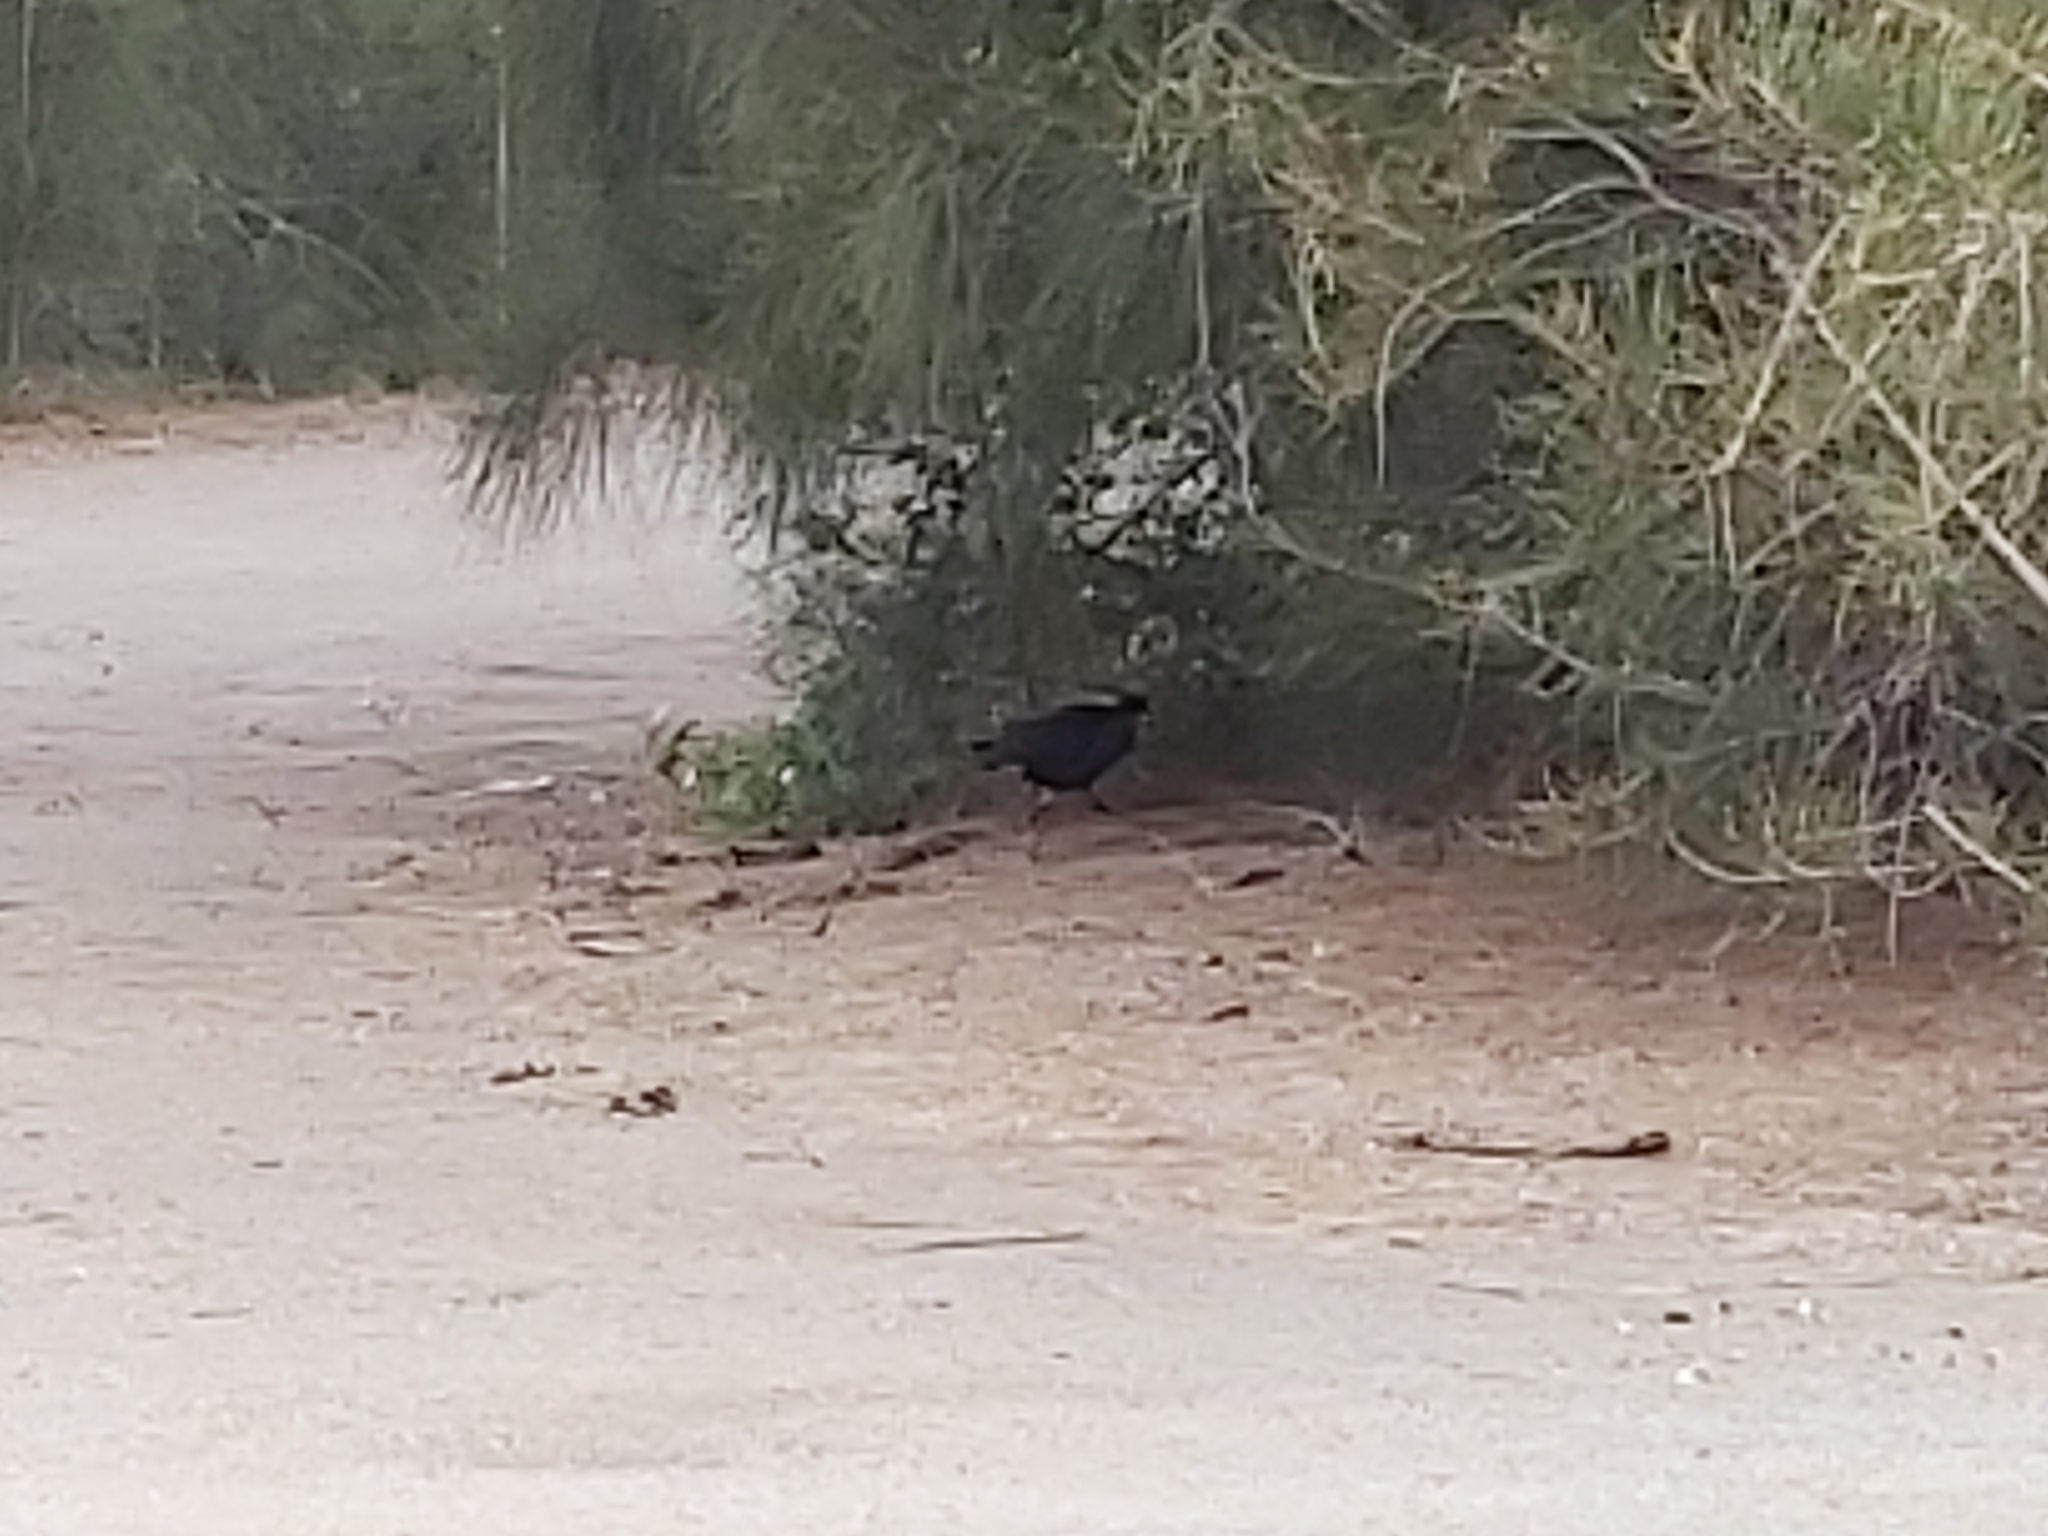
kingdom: Animalia
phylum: Chordata
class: Aves
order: Gruiformes
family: Rallidae
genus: Porphyrio
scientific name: Porphyrio melanotus
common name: Australasian swamphen
